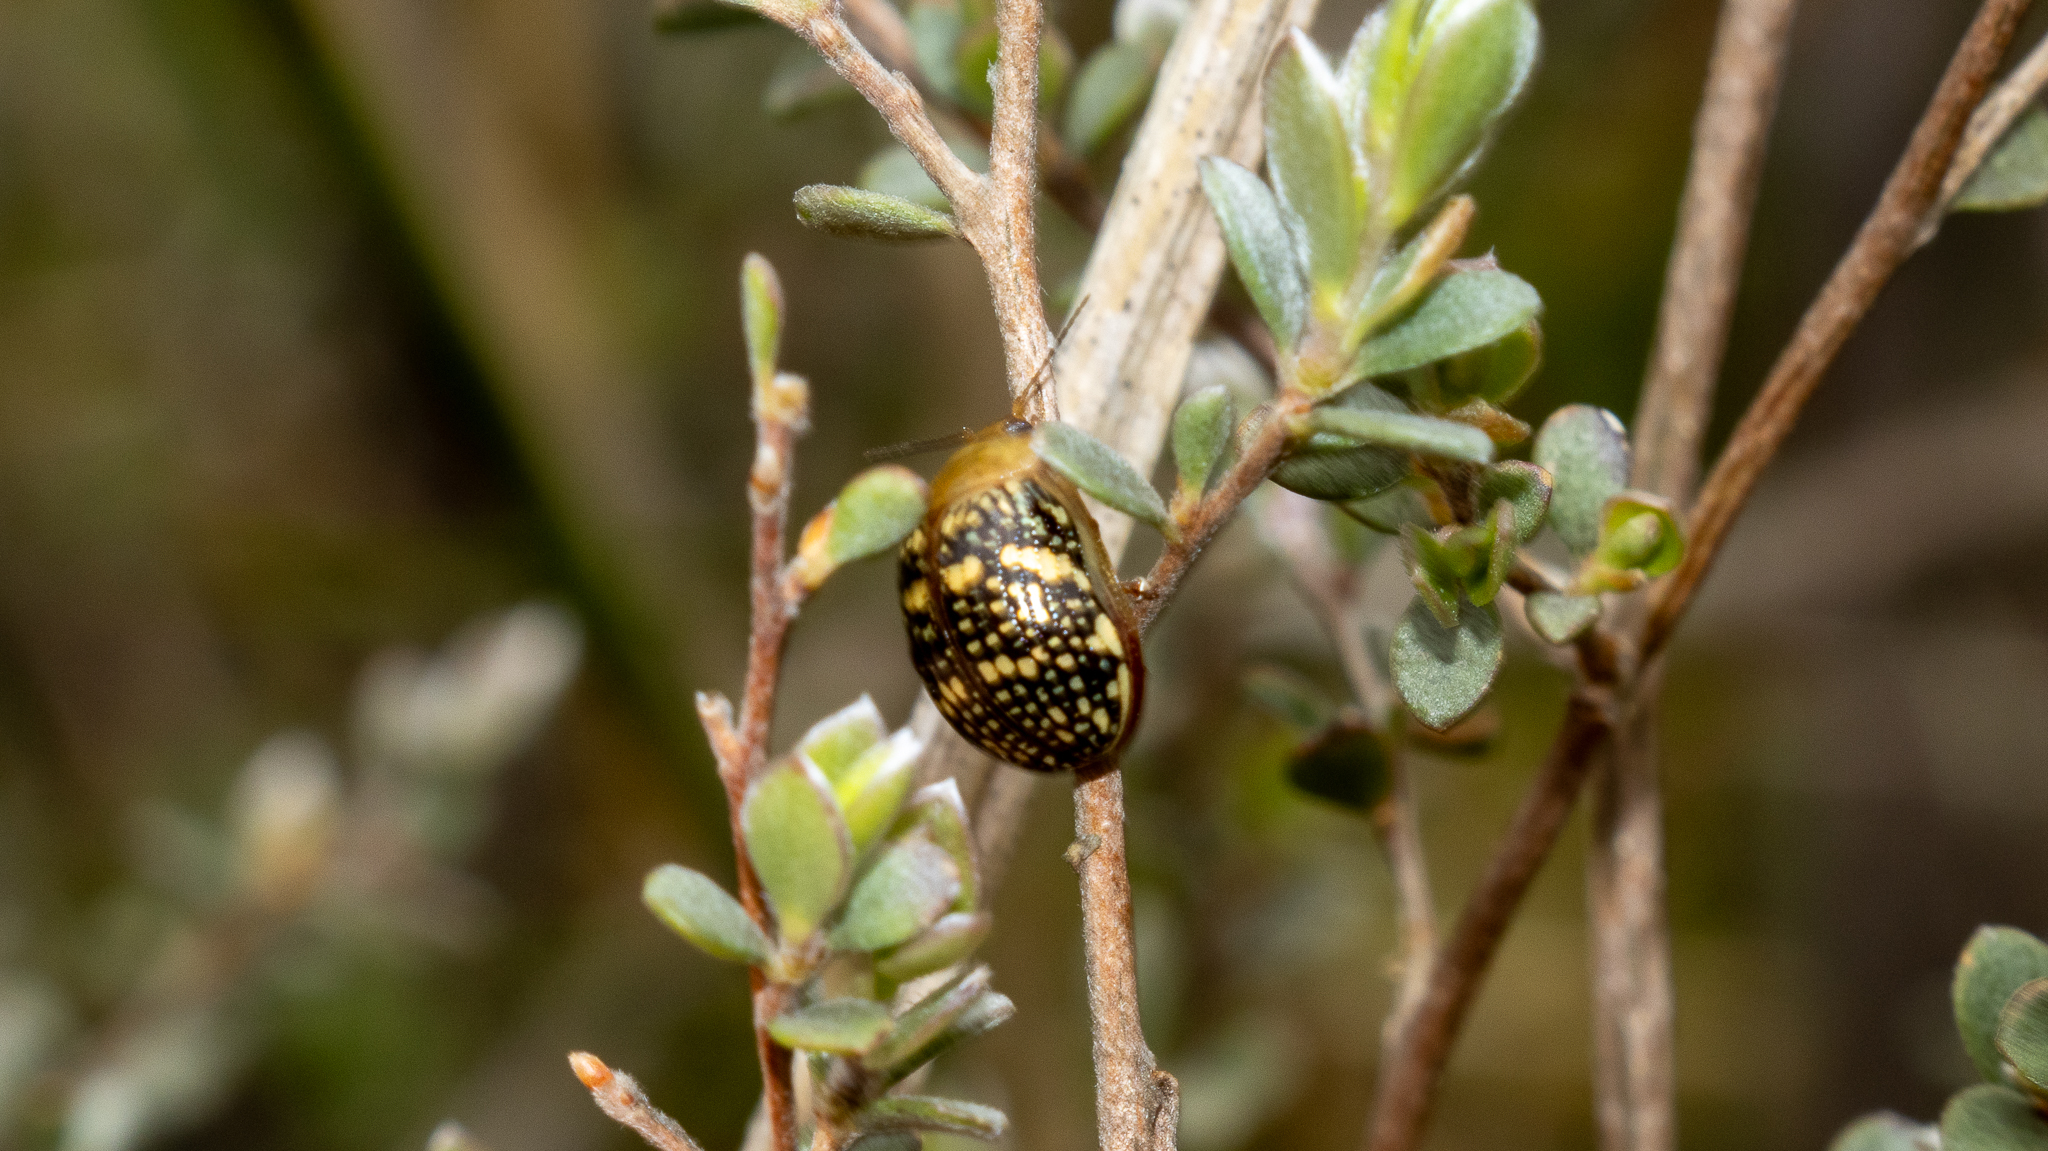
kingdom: Animalia
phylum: Arthropoda
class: Insecta
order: Coleoptera
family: Chrysomelidae
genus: Paropsis
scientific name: Paropsis
